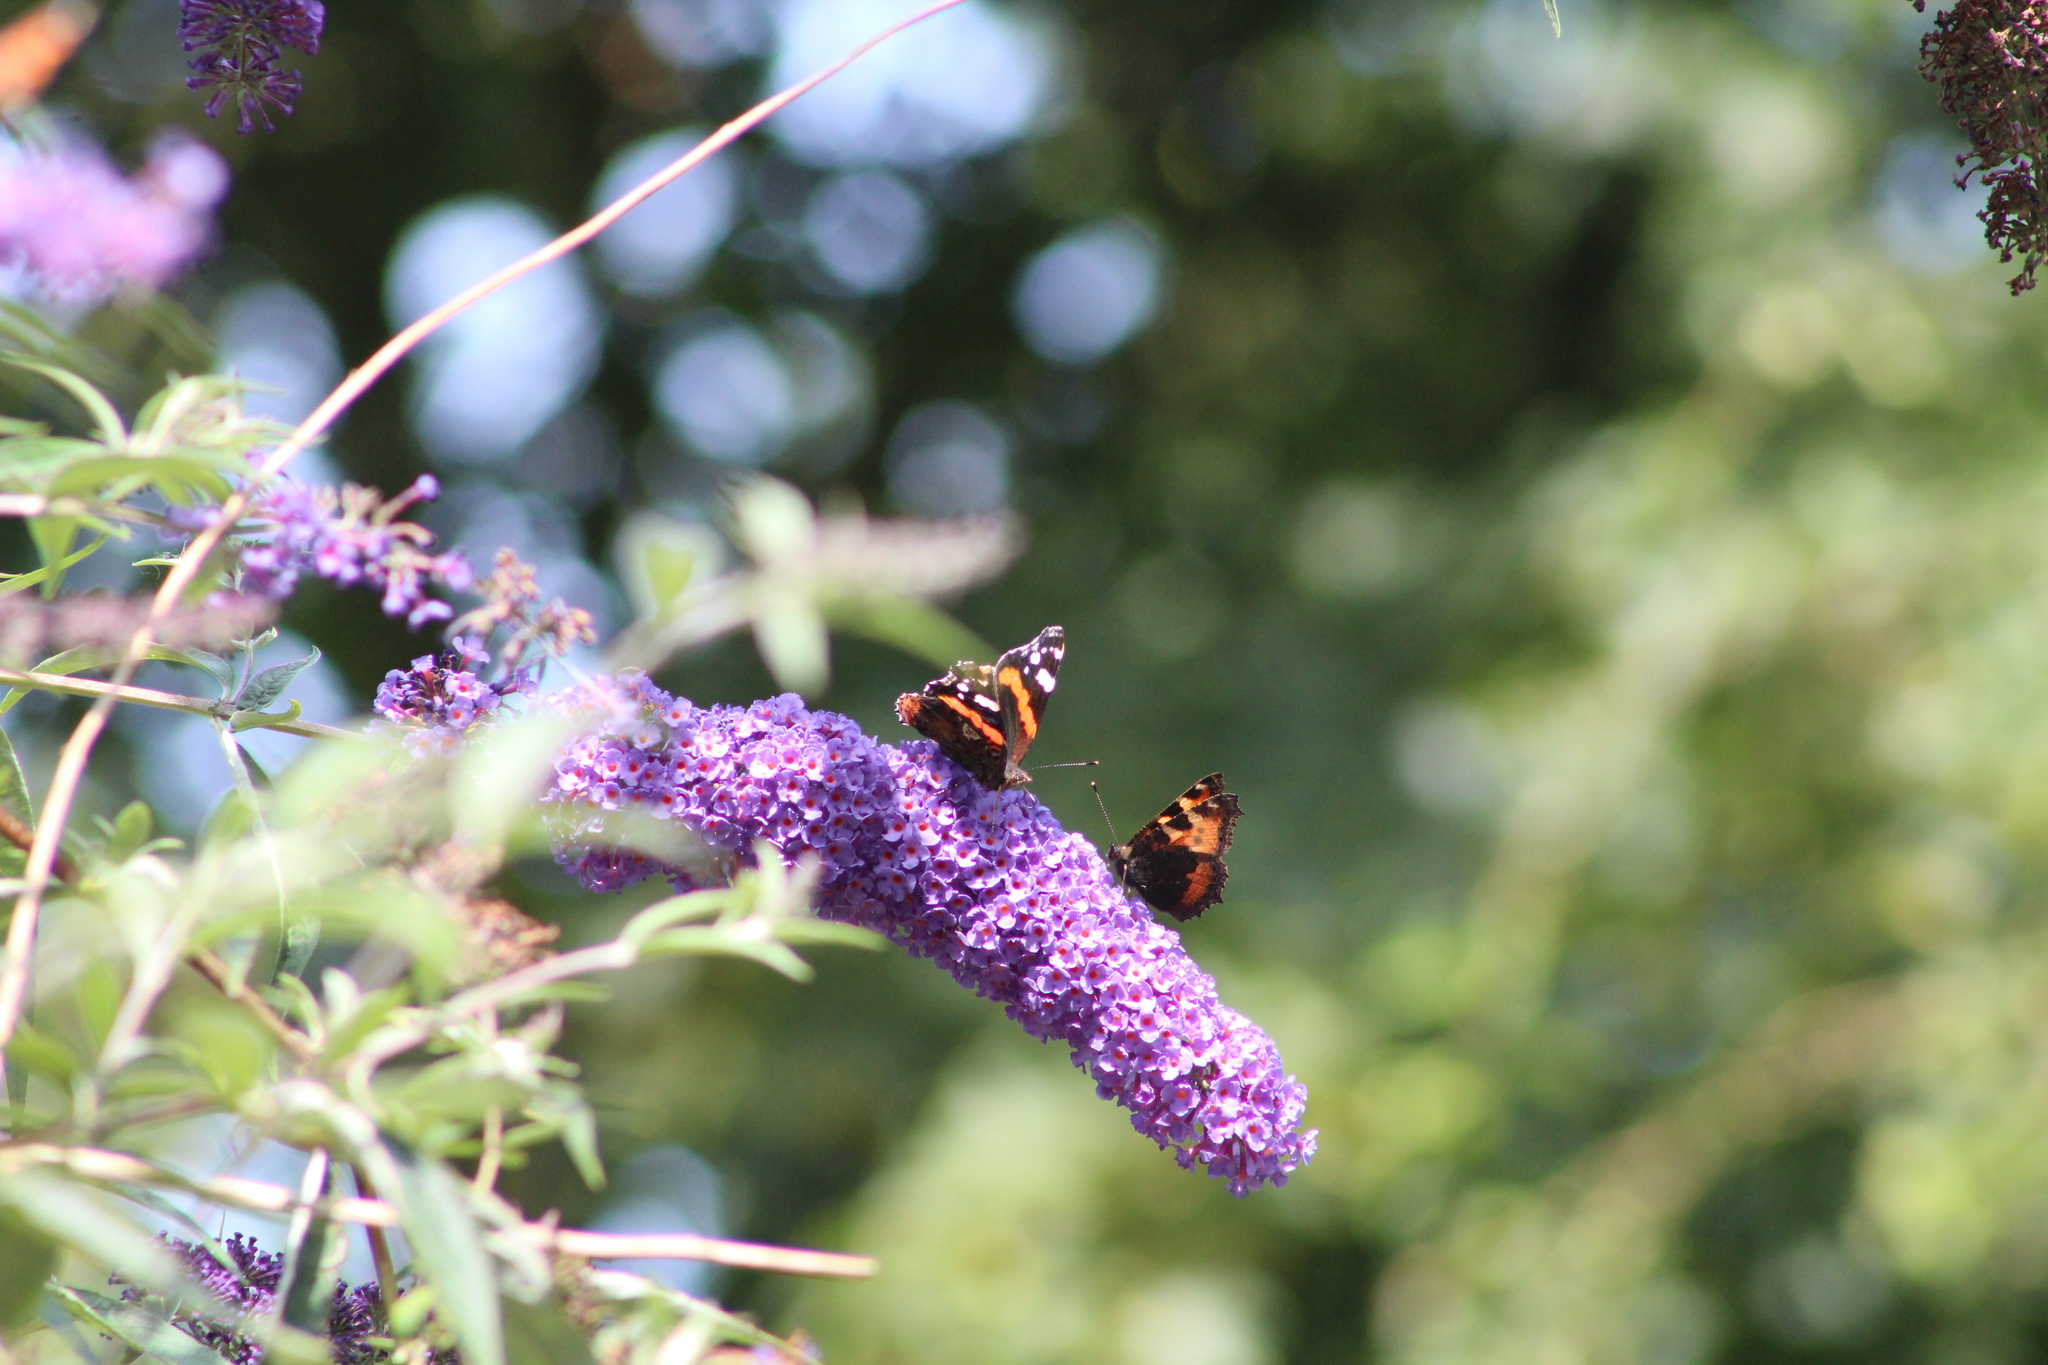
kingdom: Animalia
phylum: Arthropoda
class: Insecta
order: Lepidoptera
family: Nymphalidae
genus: Vanessa
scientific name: Vanessa atalanta
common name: Red admiral
